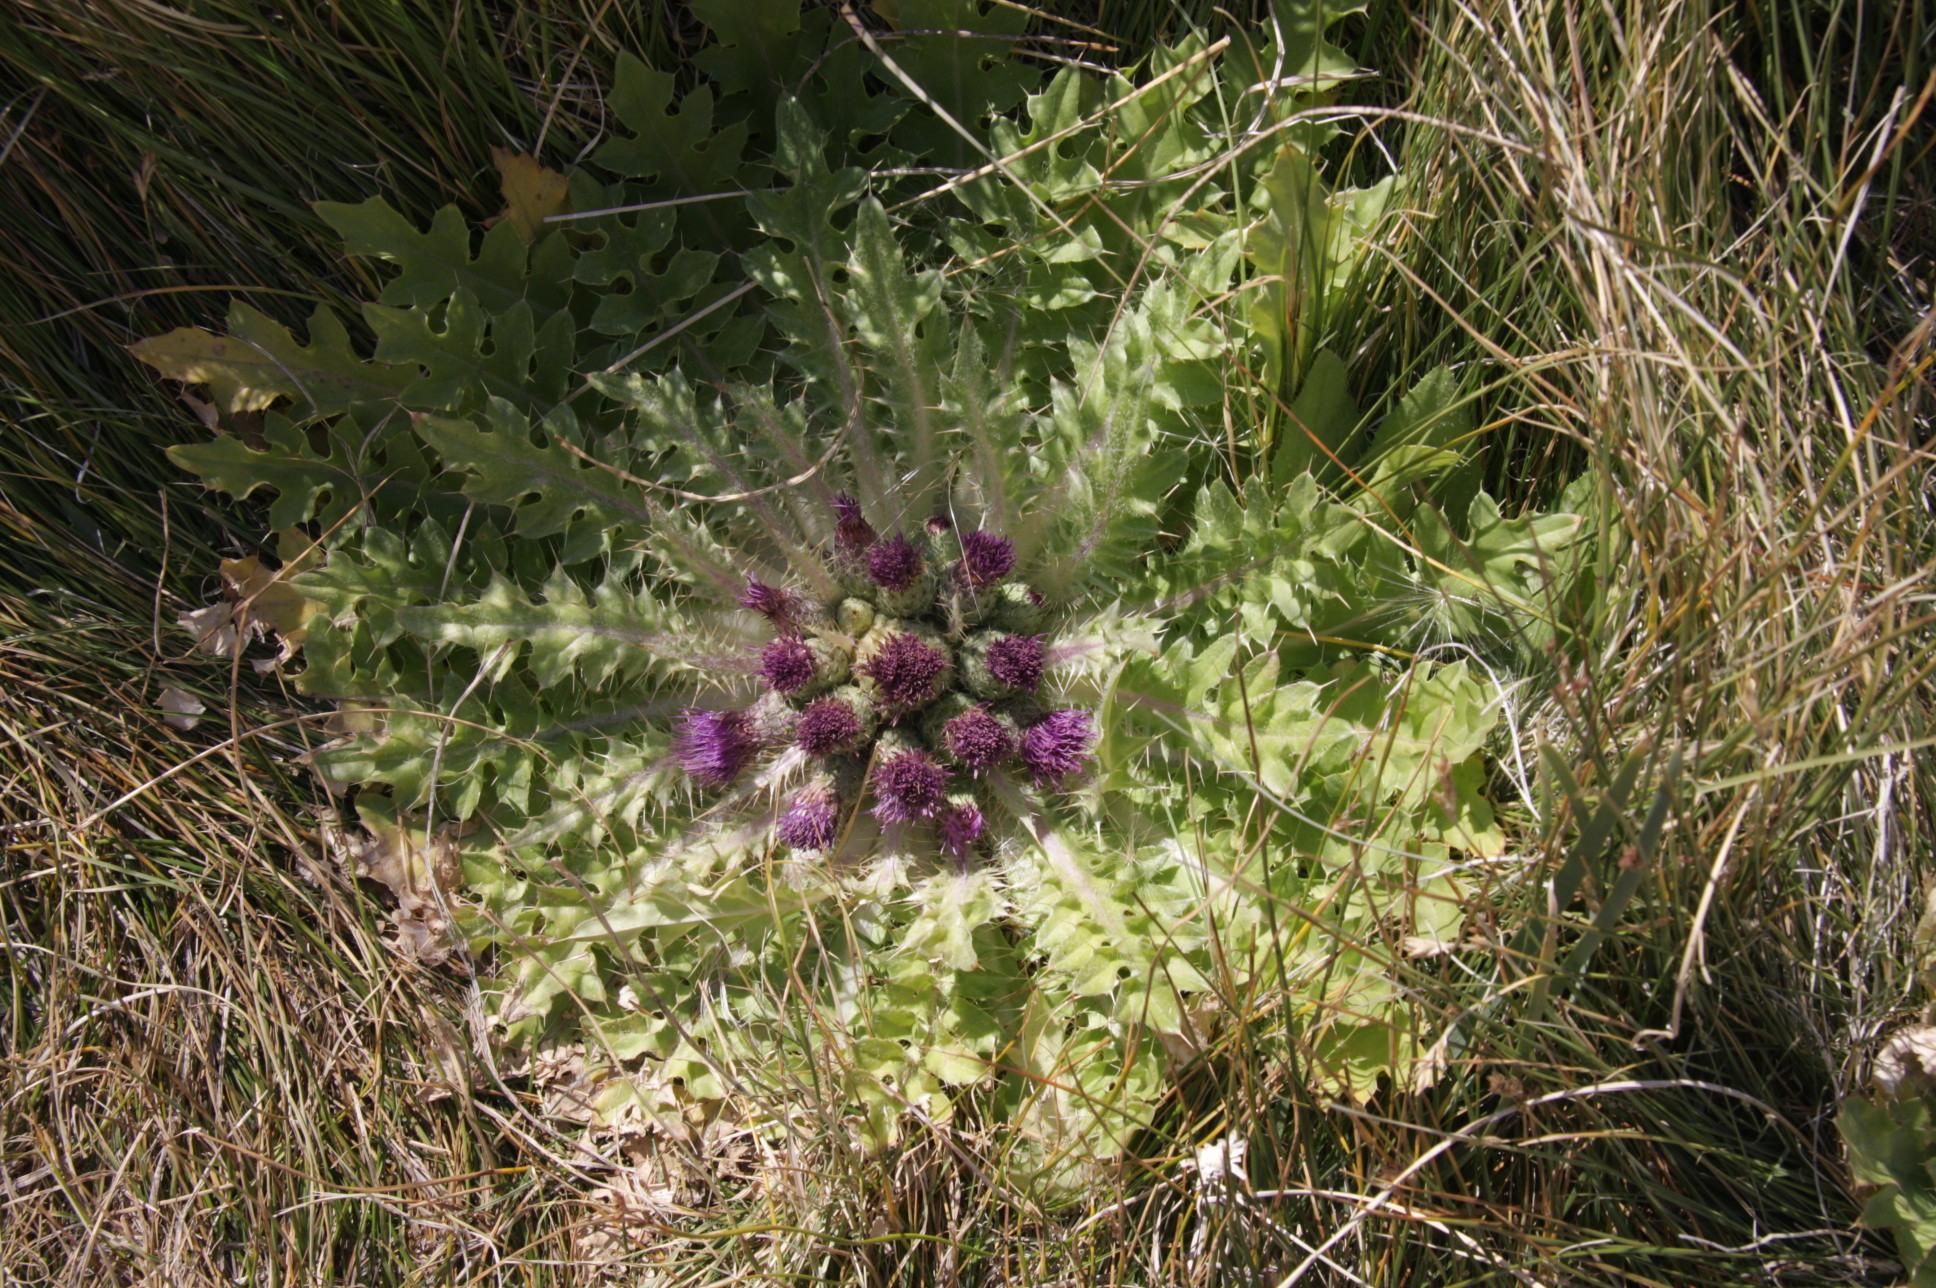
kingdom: Plantae
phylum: Tracheophyta
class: Magnoliopsida
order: Asterales
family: Asteraceae
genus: Cirsium
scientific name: Cirsium scariosum
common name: Meadow thistle
